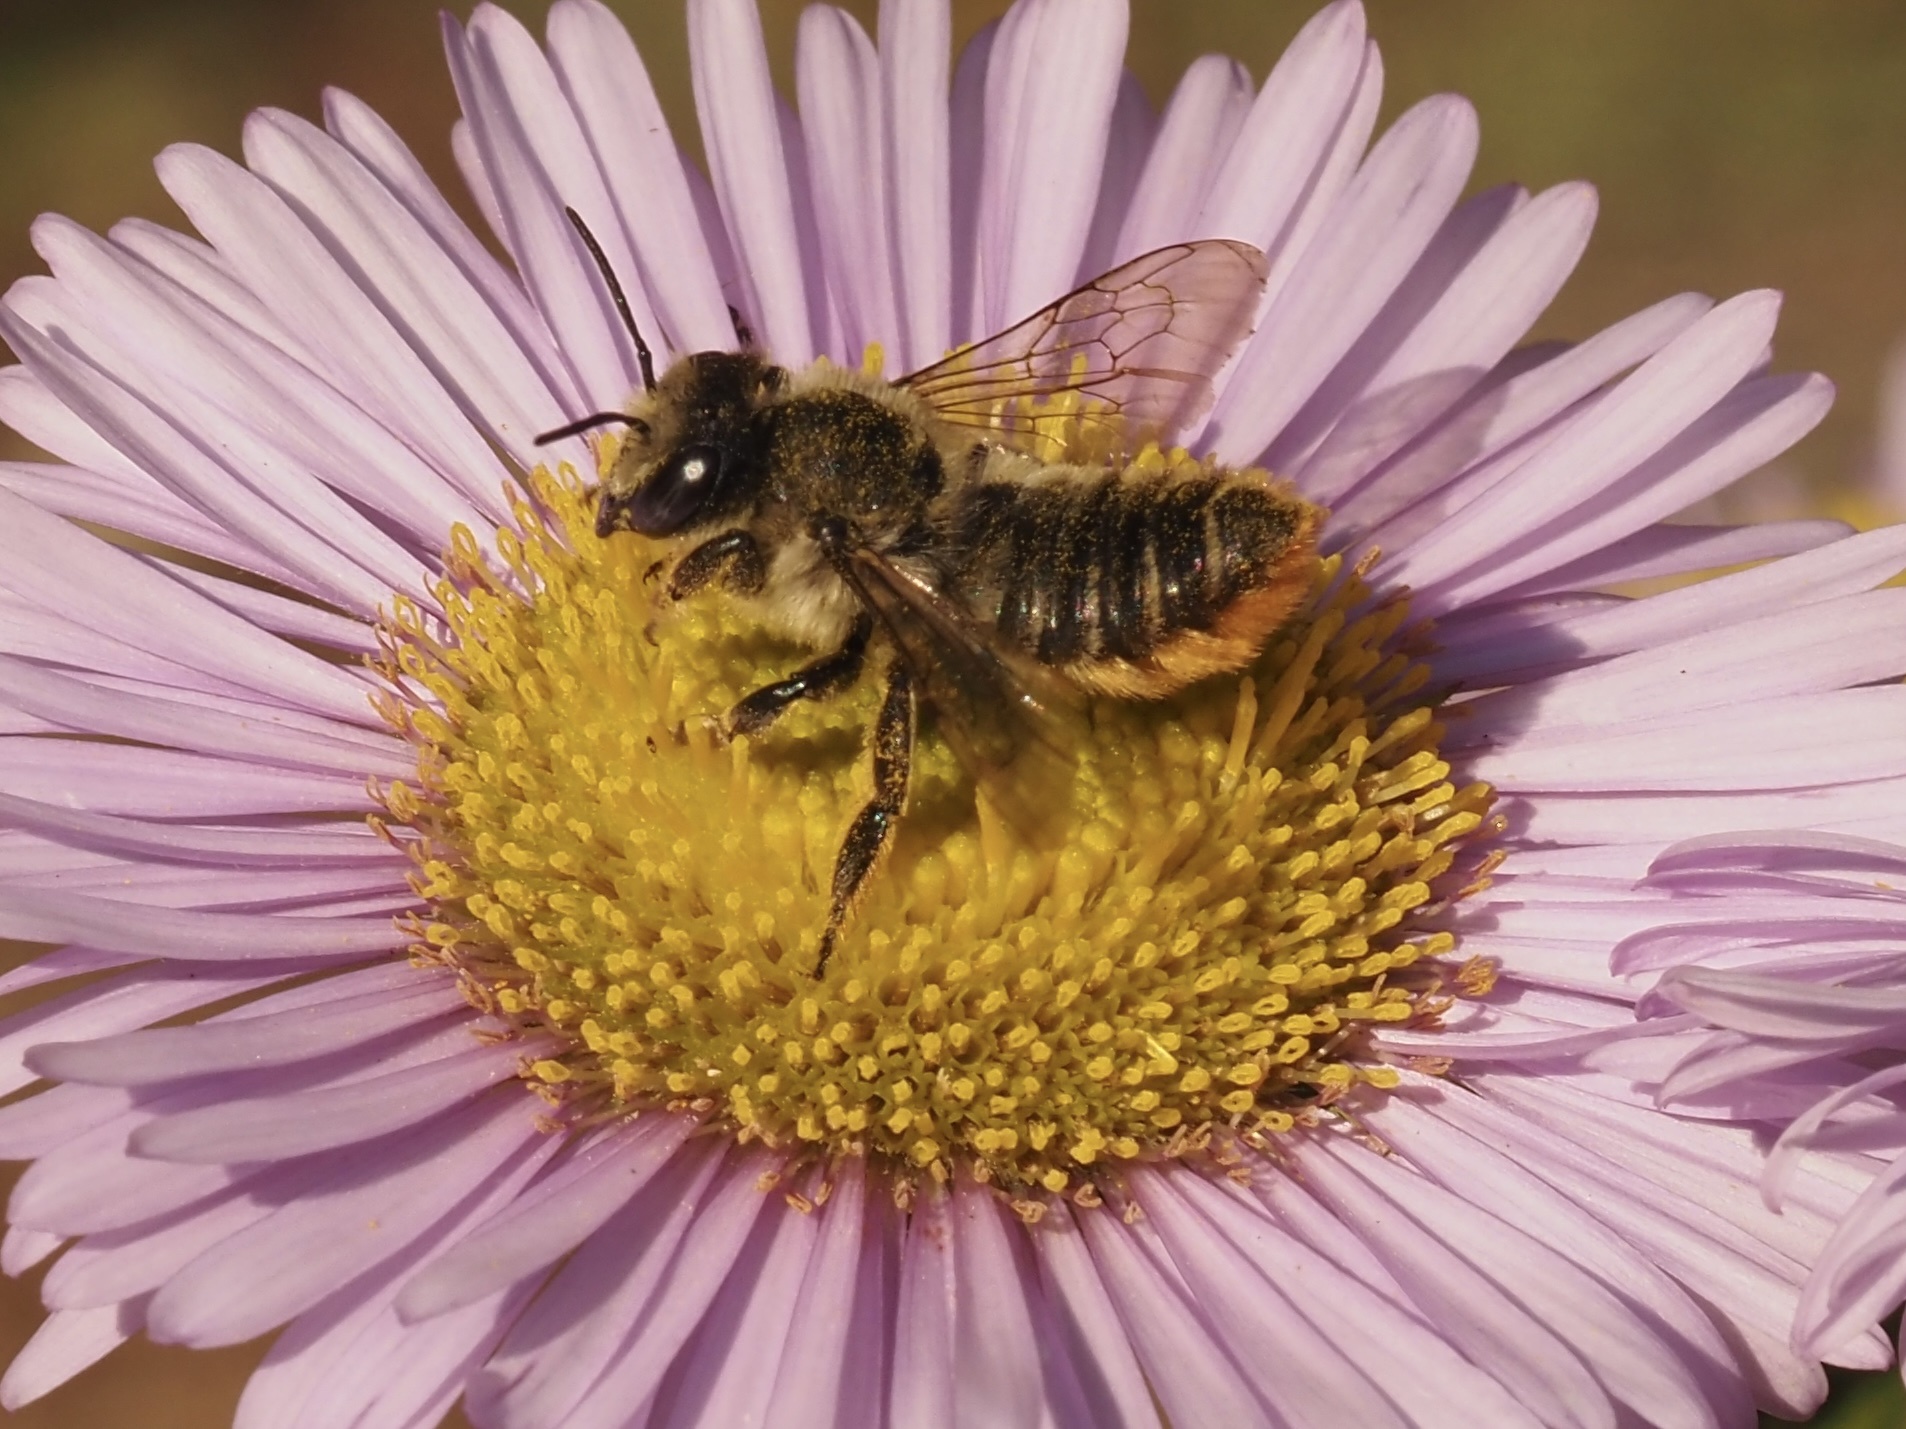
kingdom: Animalia
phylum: Arthropoda
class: Insecta
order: Hymenoptera
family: Megachilidae
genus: Megachile
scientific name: Megachile perihirta
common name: Western leafcutter
